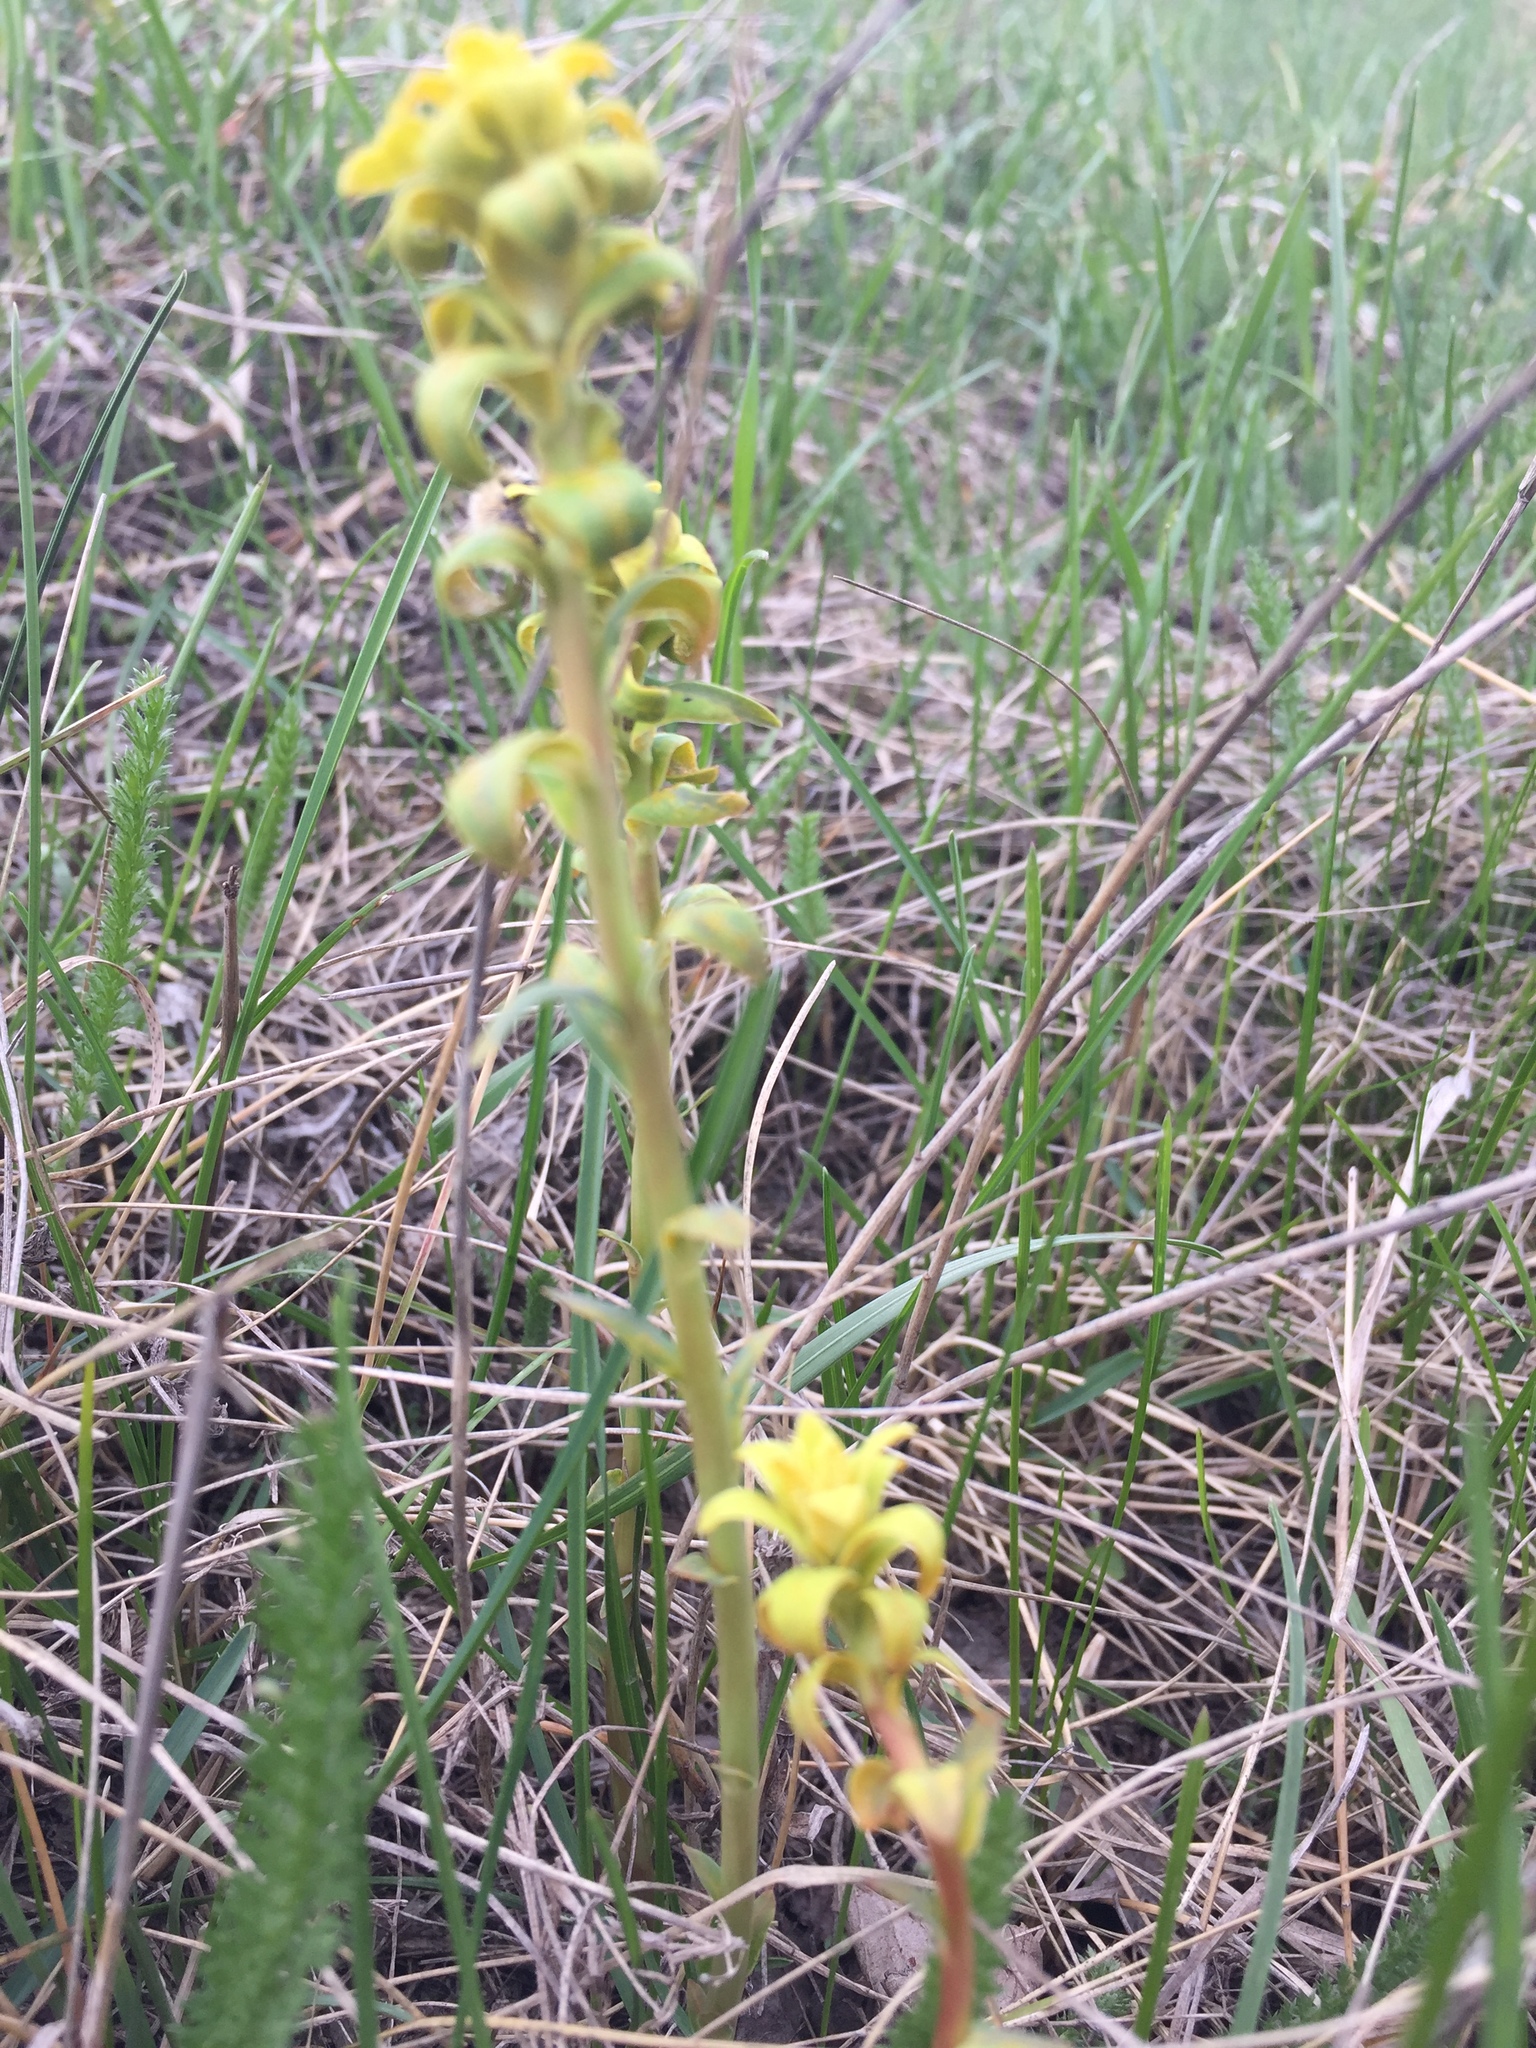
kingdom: Plantae
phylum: Tracheophyta
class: Magnoliopsida
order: Malpighiales
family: Euphorbiaceae
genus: Euphorbia
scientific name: Euphorbia virgata
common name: Leafy spurge
